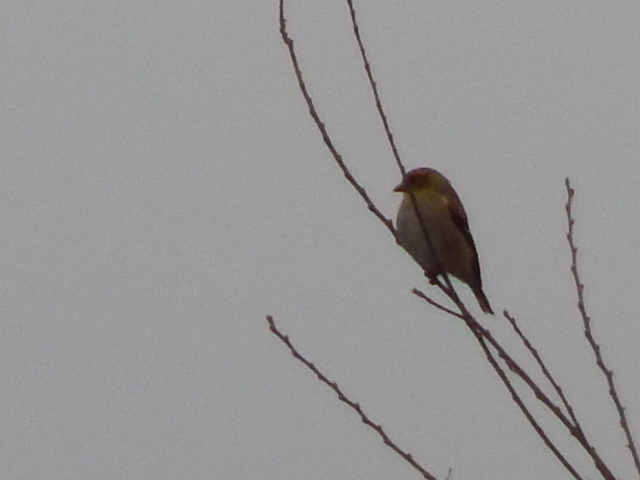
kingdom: Animalia
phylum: Chordata
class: Aves
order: Passeriformes
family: Fringillidae
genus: Spinus
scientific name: Spinus tristis
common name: American goldfinch
